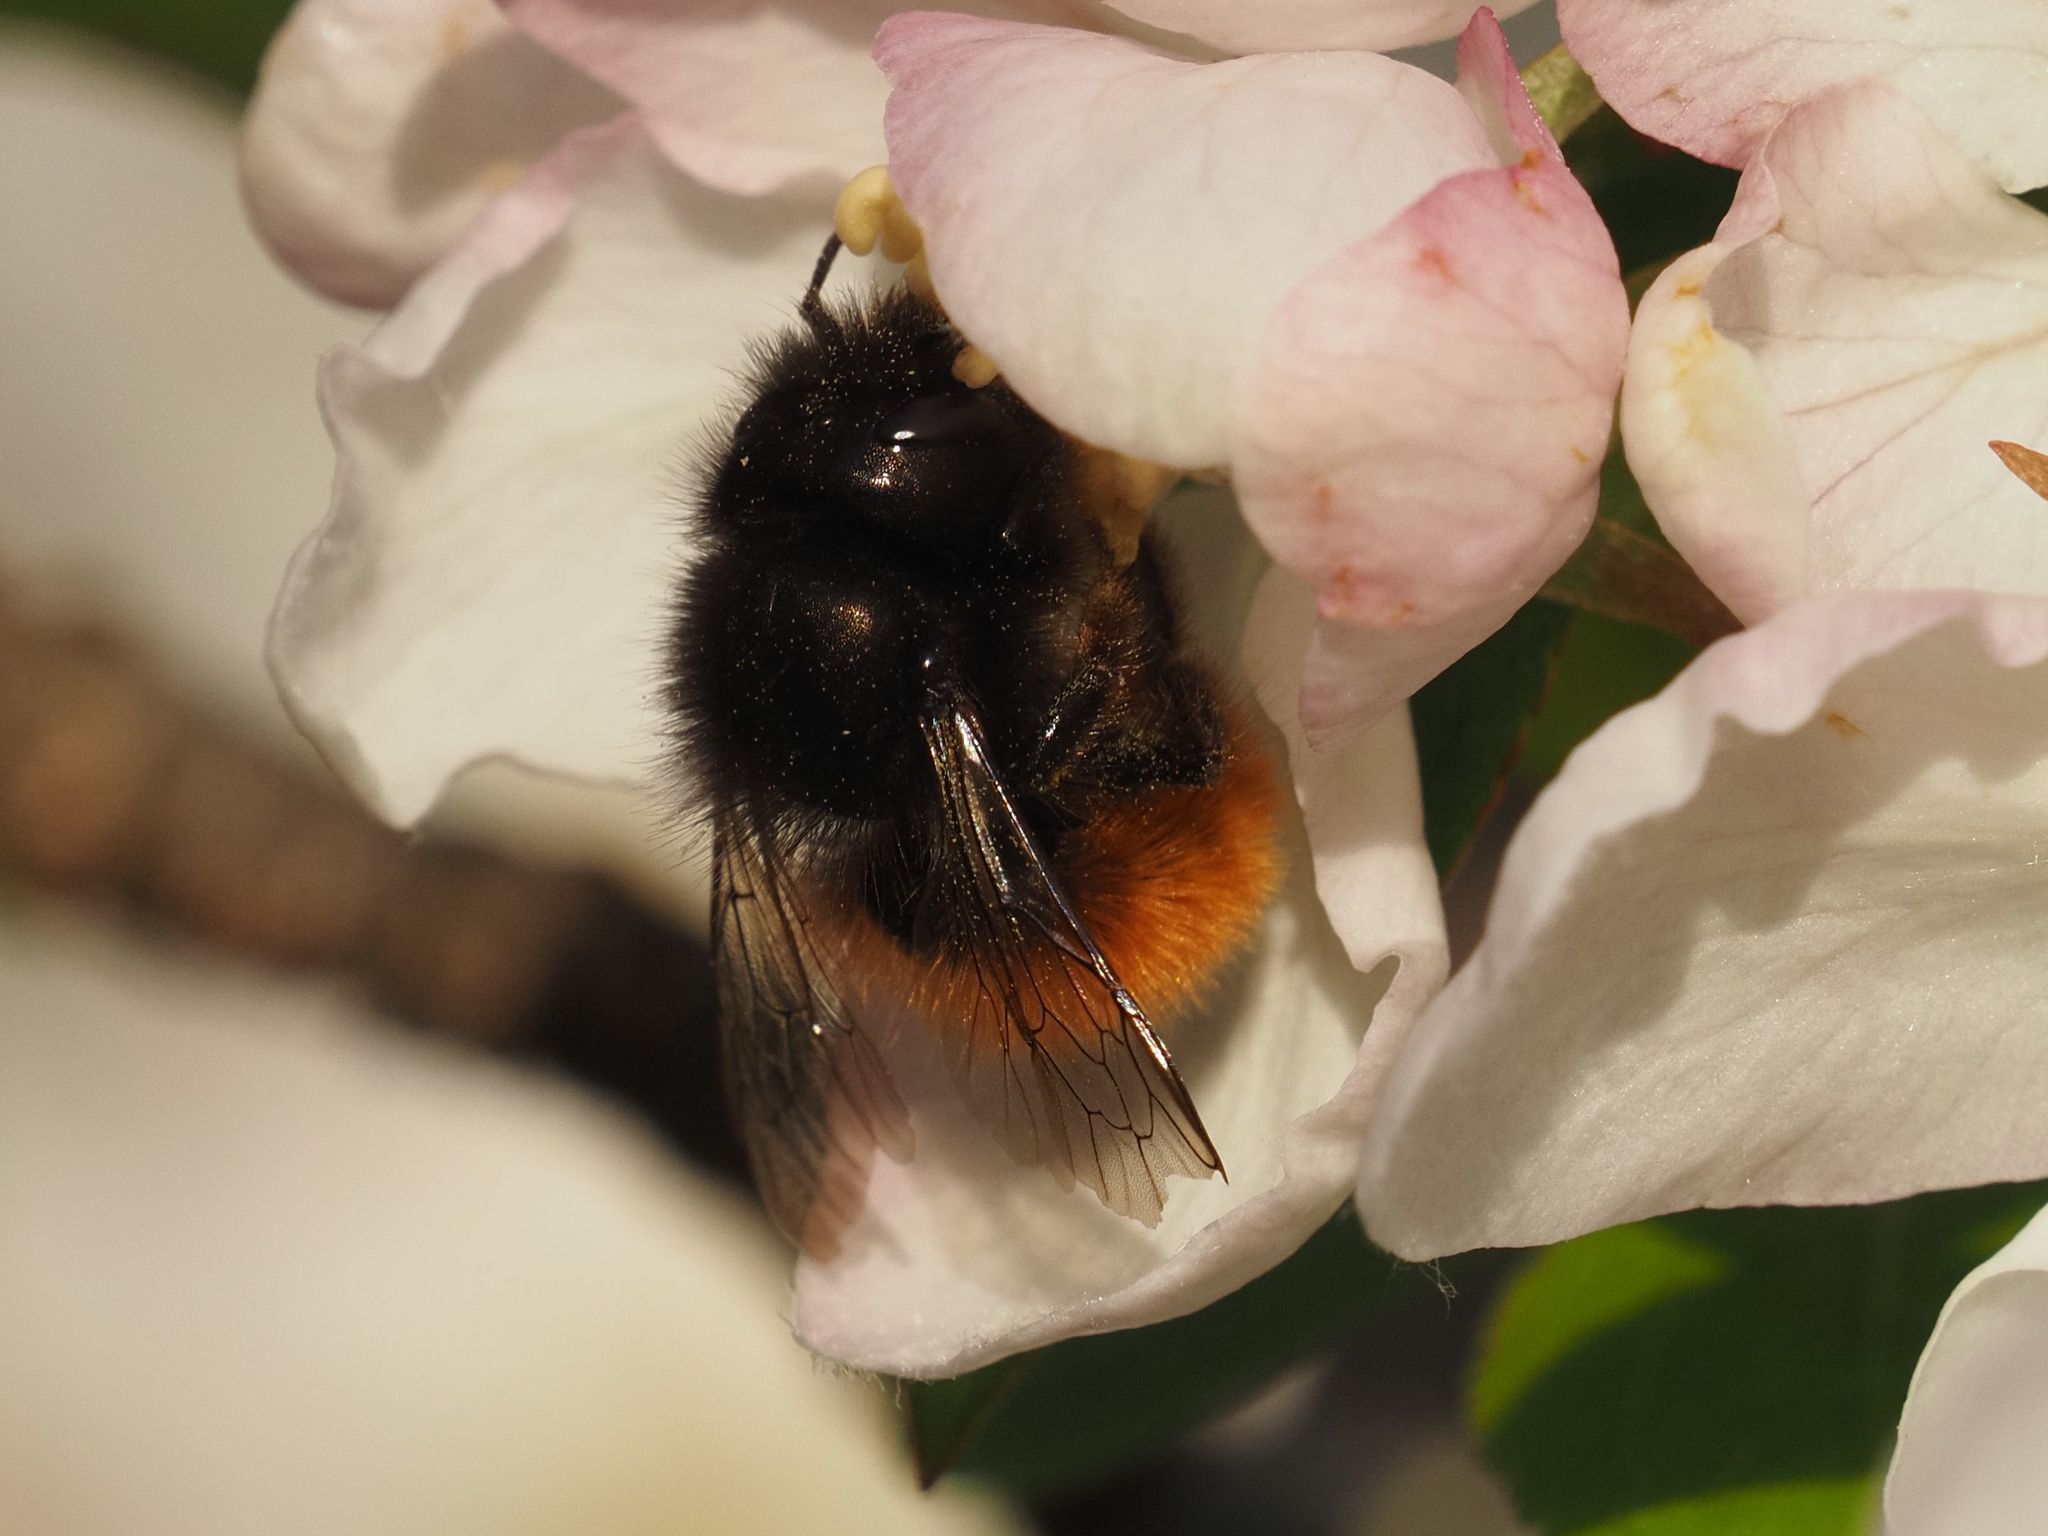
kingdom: Animalia
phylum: Arthropoda
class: Insecta
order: Hymenoptera
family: Megachilidae
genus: Osmia
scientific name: Osmia cornuta
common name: Mason bee
